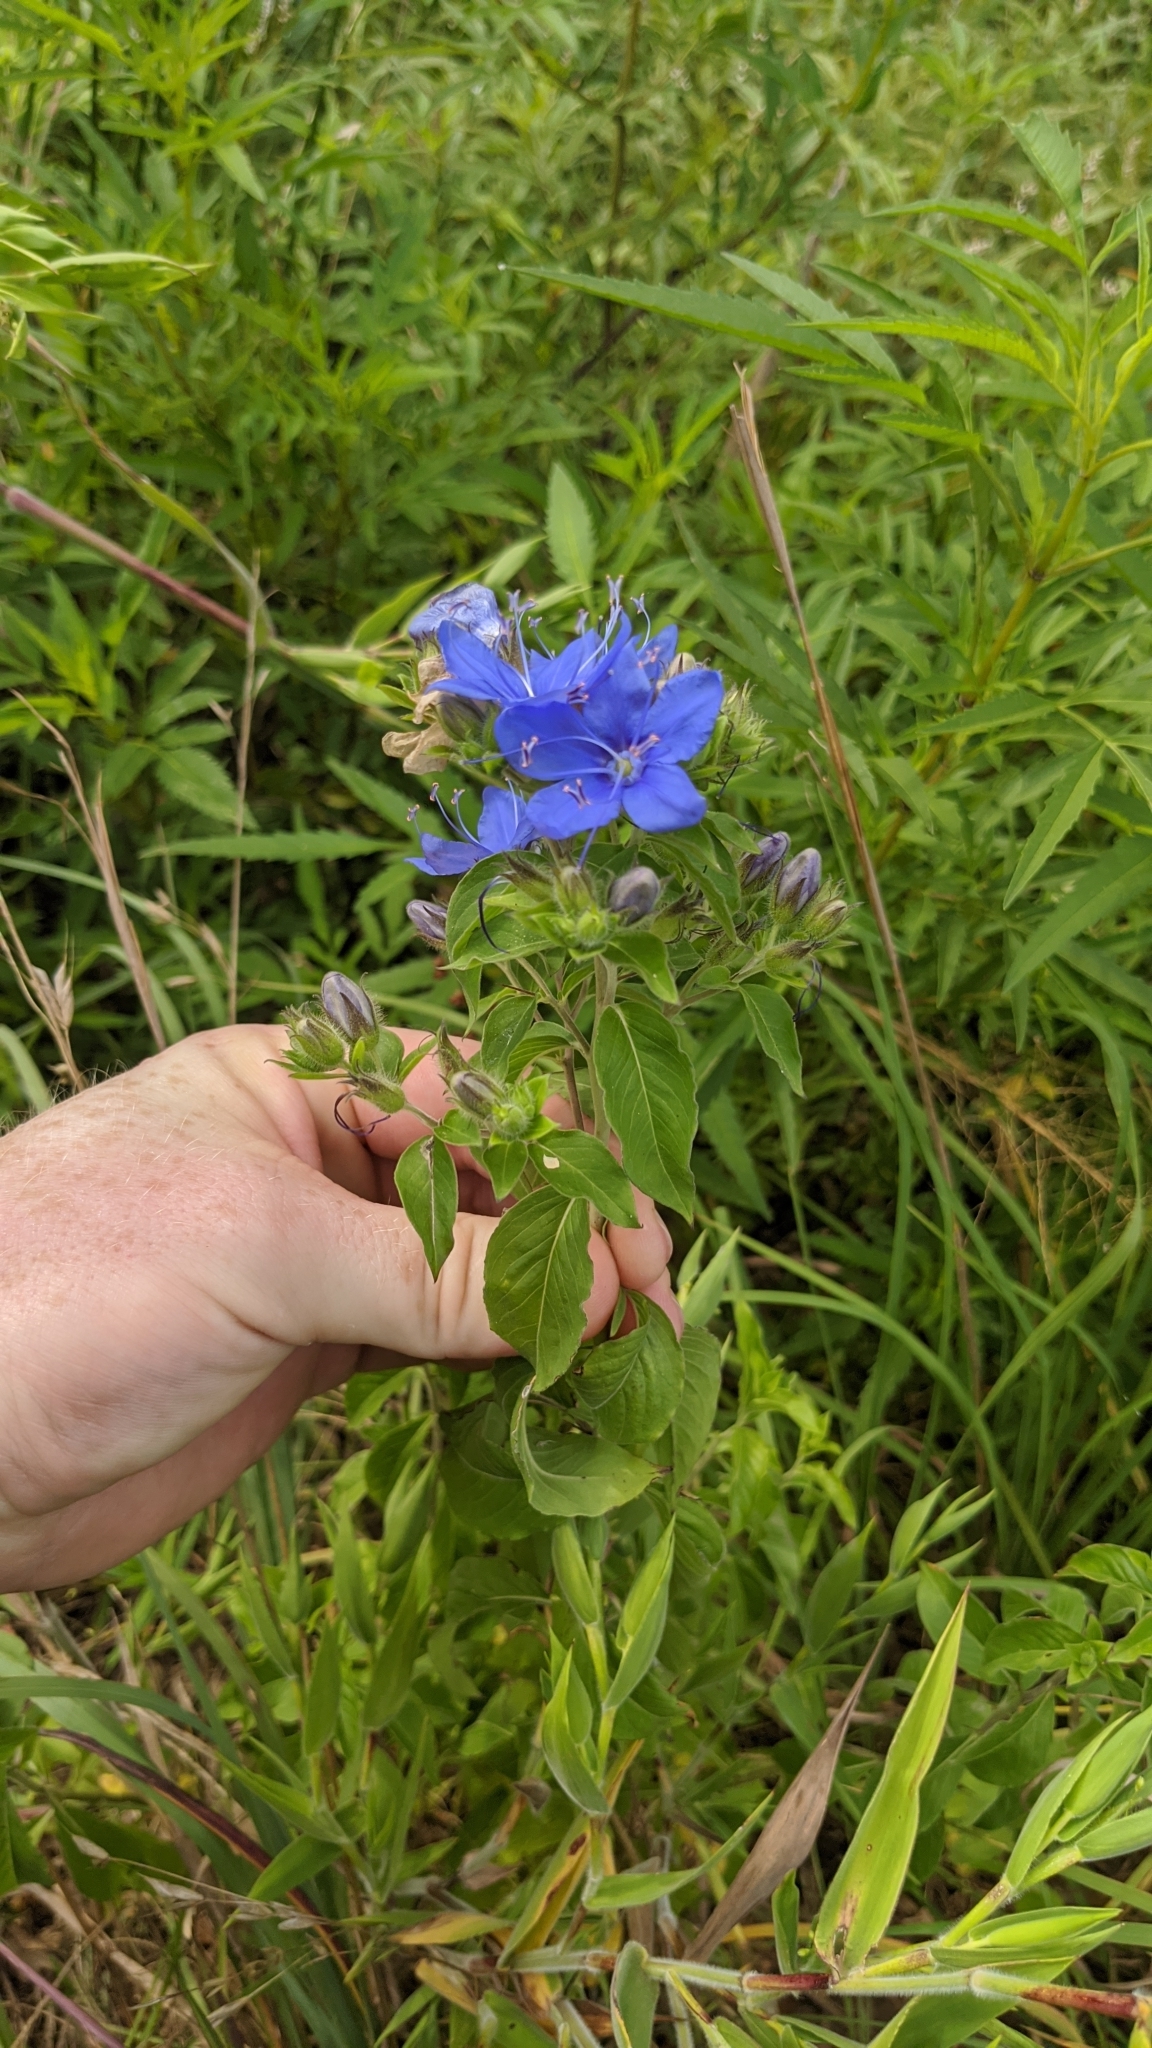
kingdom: Plantae
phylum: Tracheophyta
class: Magnoliopsida
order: Solanales
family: Hydroleaceae
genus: Hydrolea
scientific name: Hydrolea ovata
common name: Ovate false fiddleleaf
